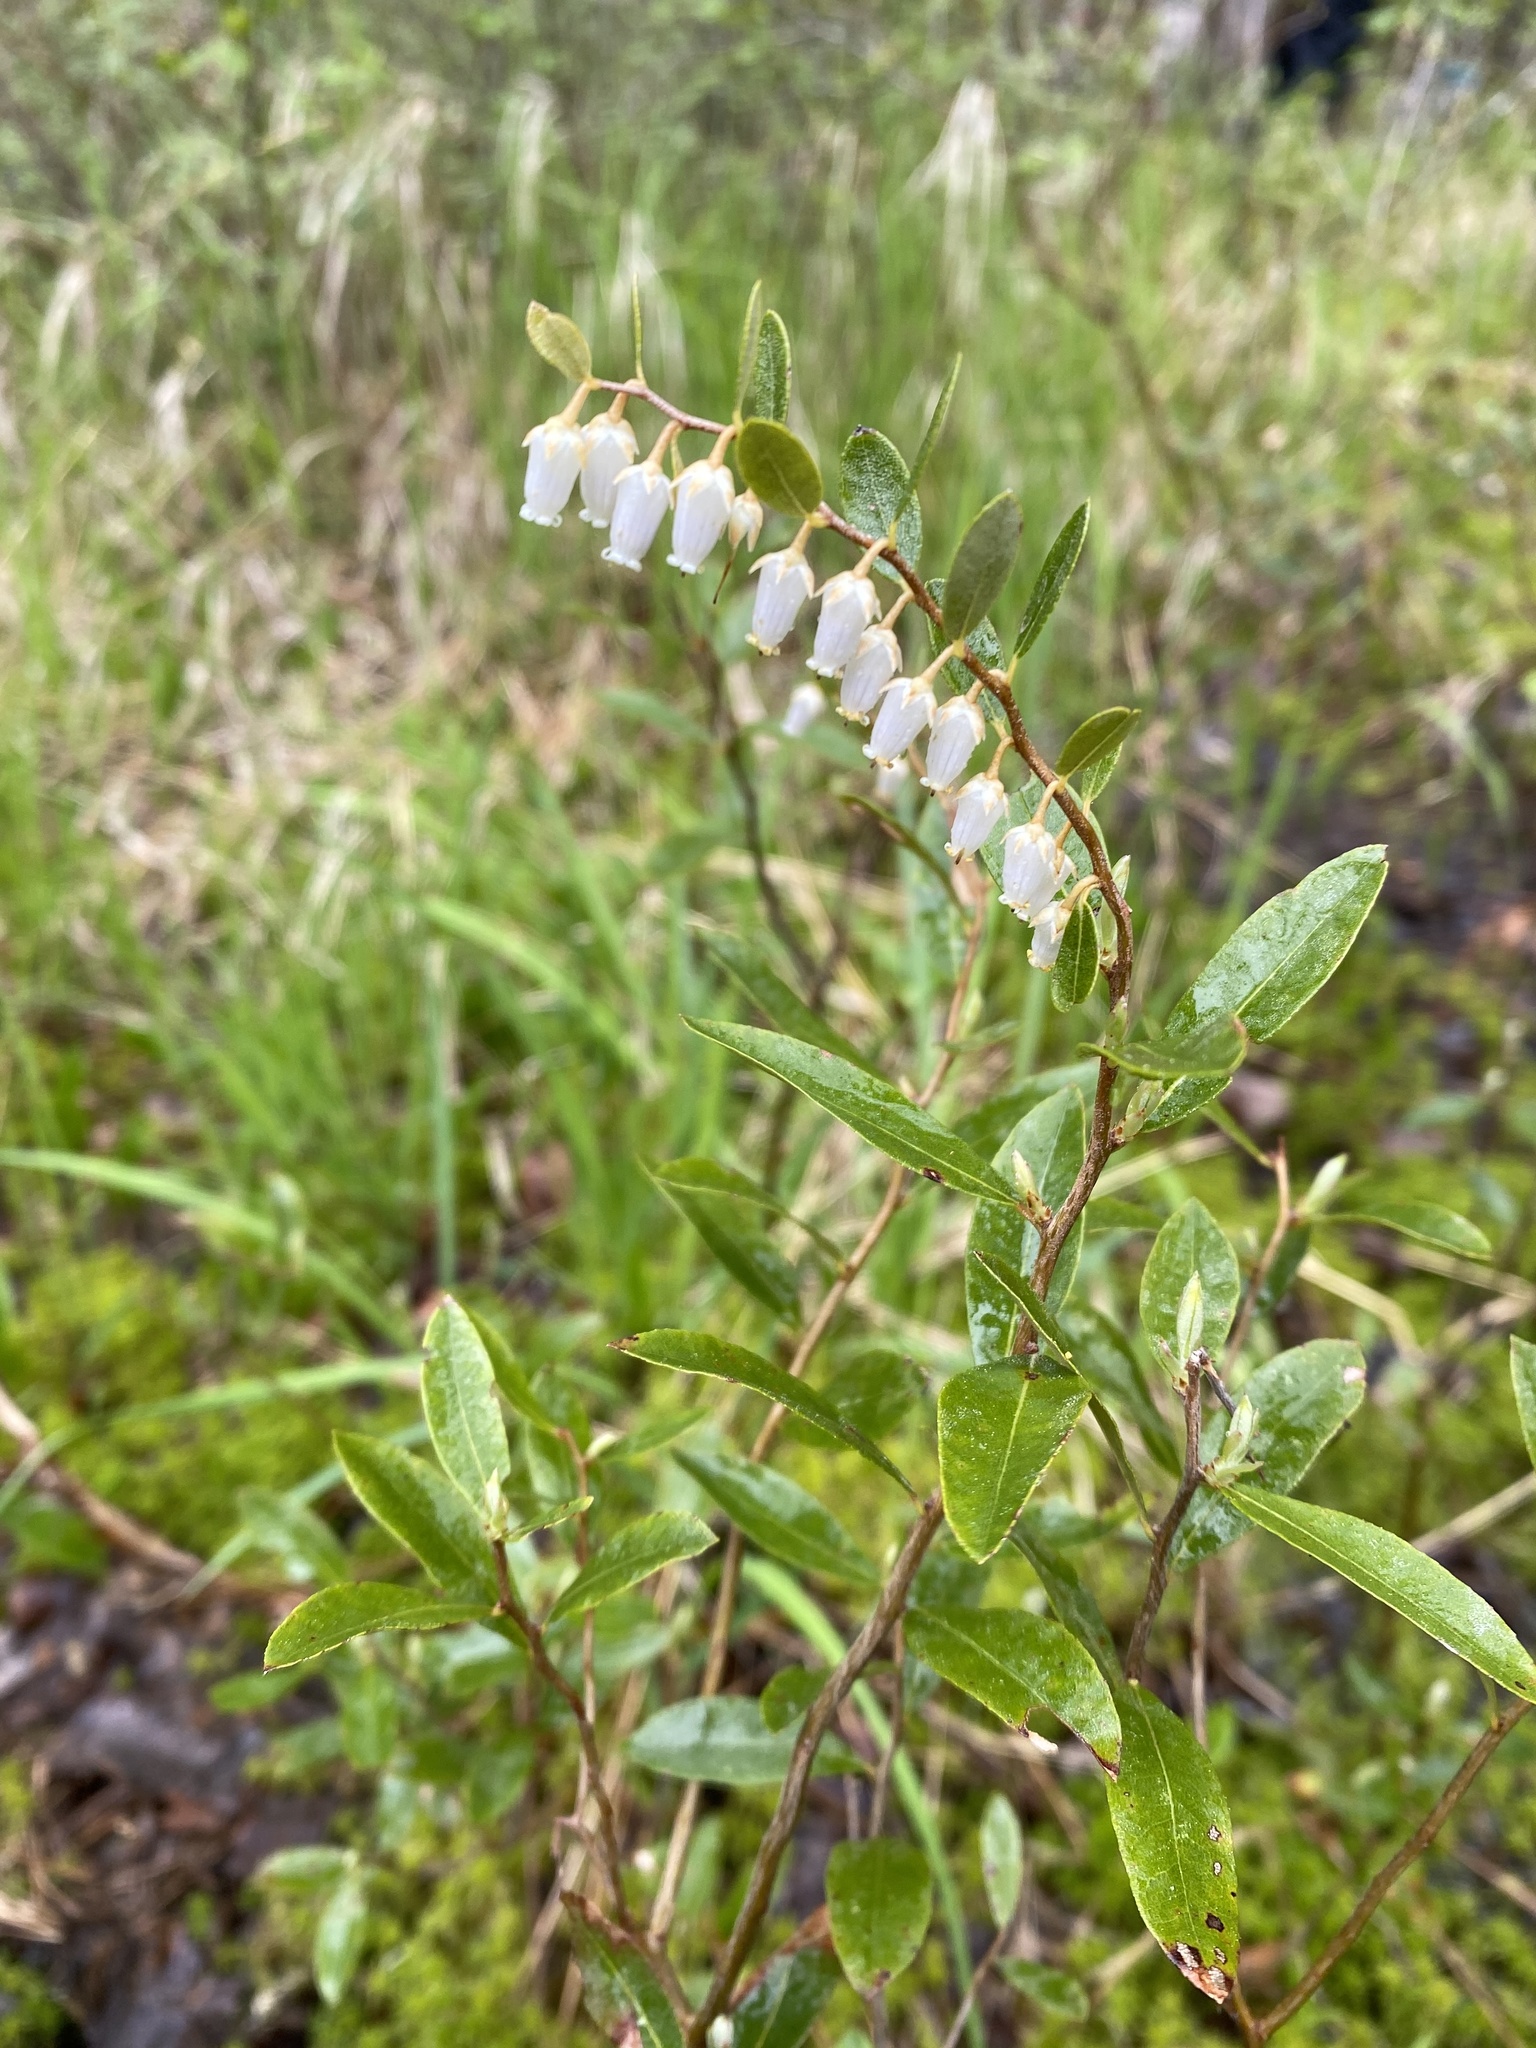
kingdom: Plantae
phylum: Tracheophyta
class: Magnoliopsida
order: Ericales
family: Ericaceae
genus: Chamaedaphne
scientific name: Chamaedaphne calyculata
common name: Leatherleaf
